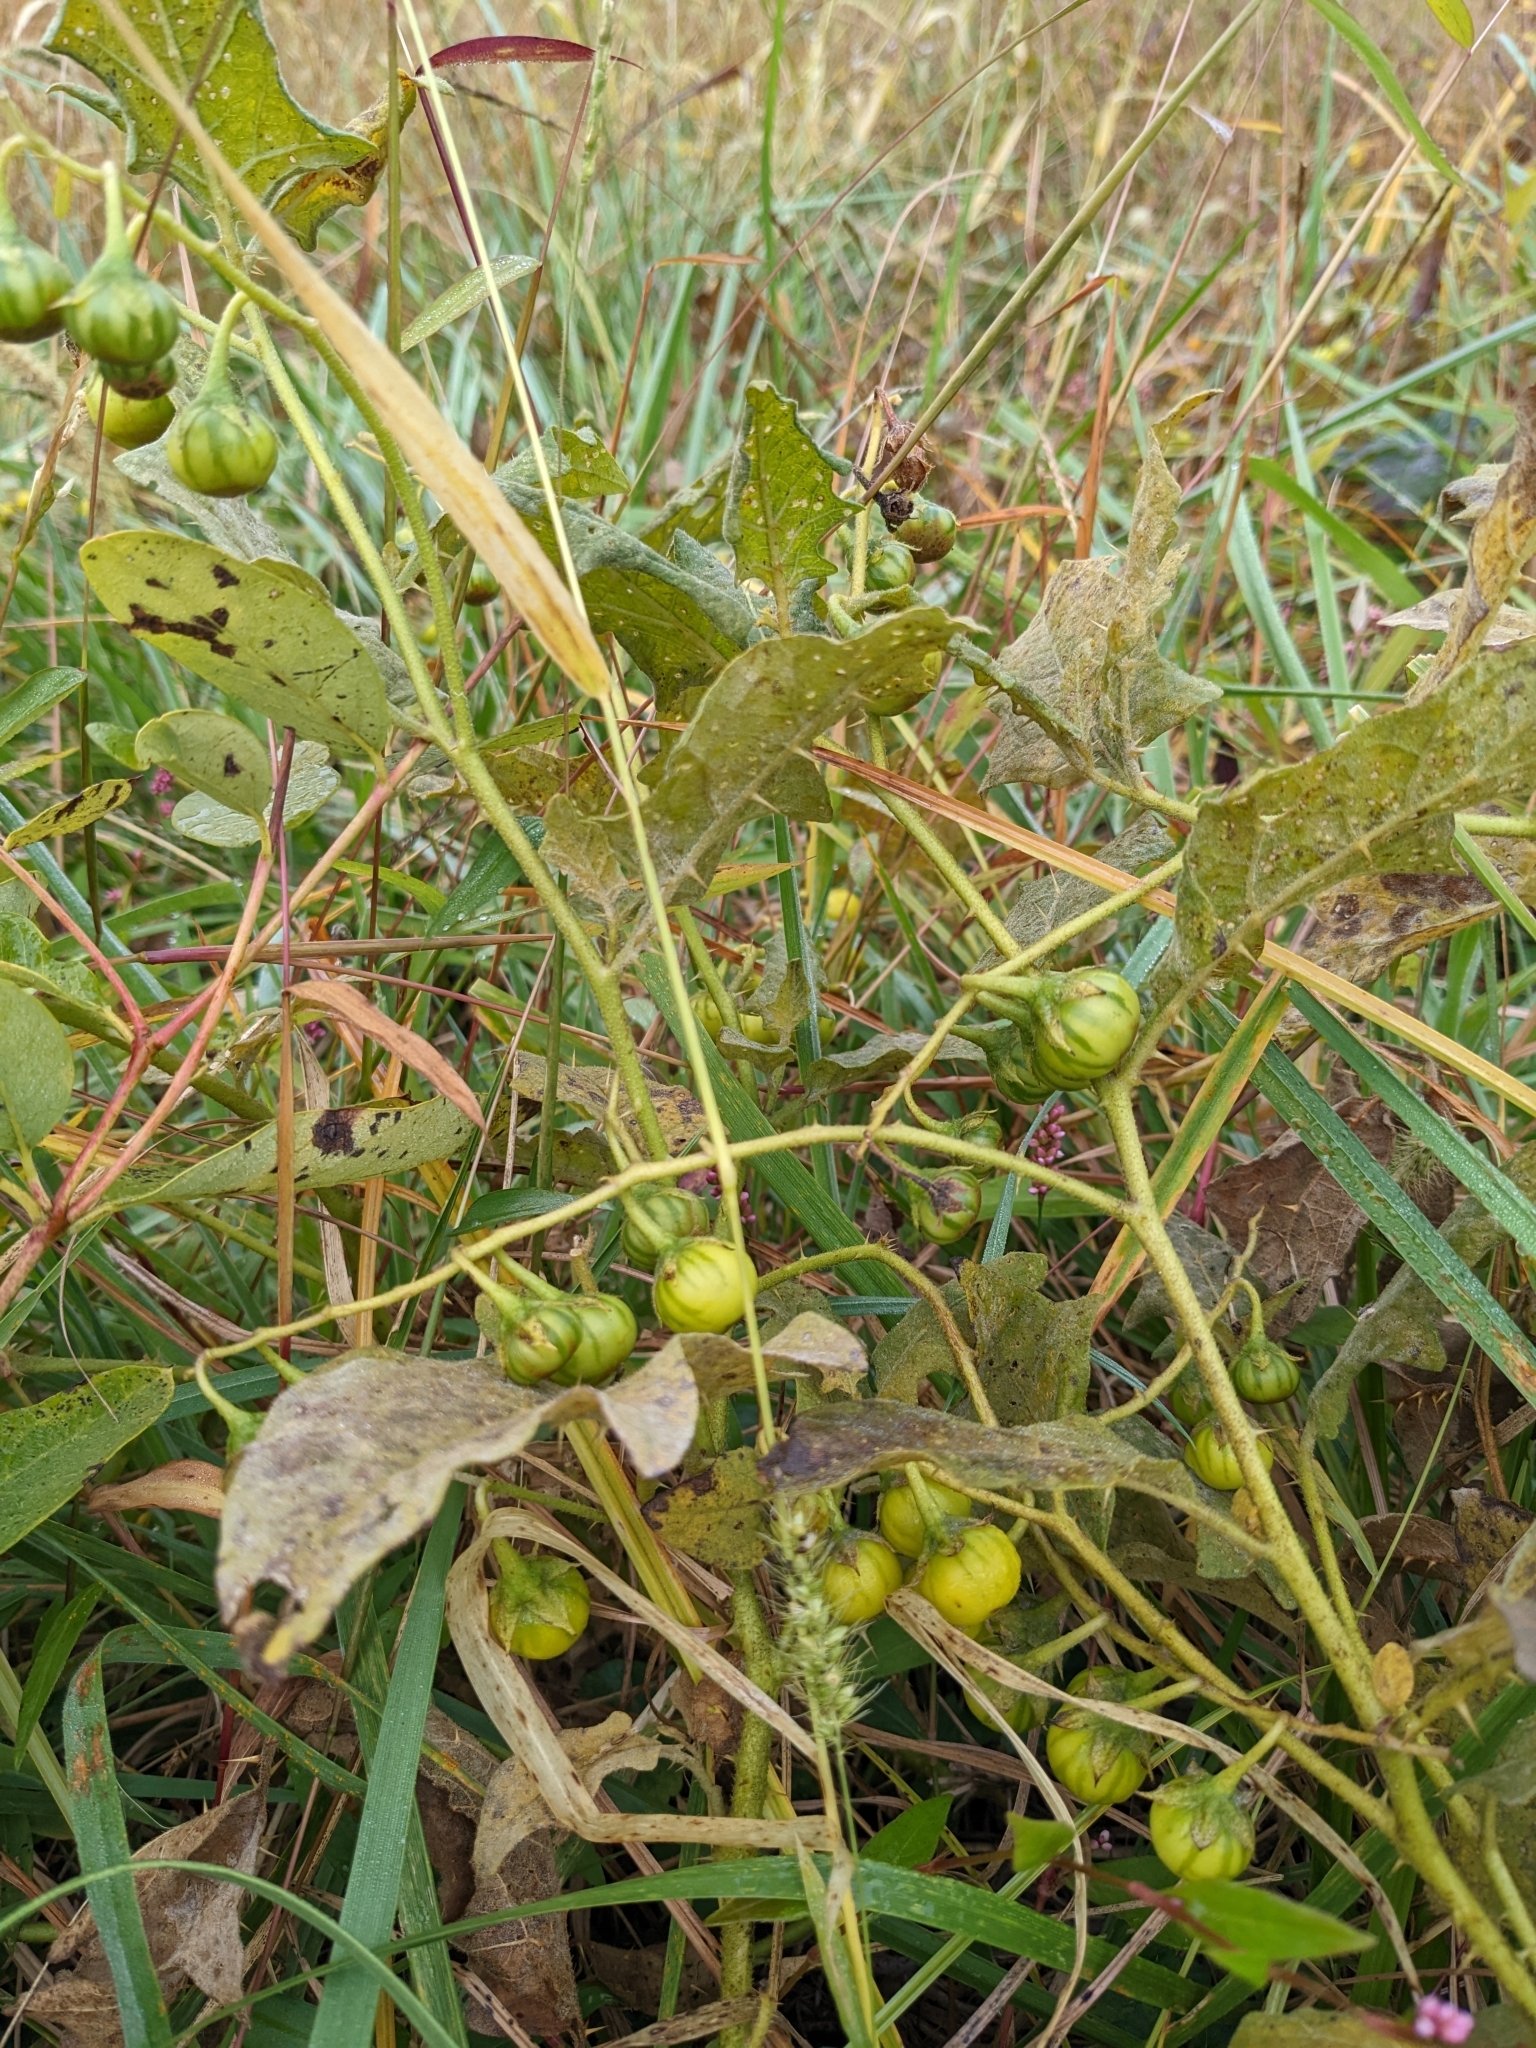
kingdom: Plantae
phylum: Tracheophyta
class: Magnoliopsida
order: Solanales
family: Solanaceae
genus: Solanum
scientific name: Solanum carolinense
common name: Horse-nettle
